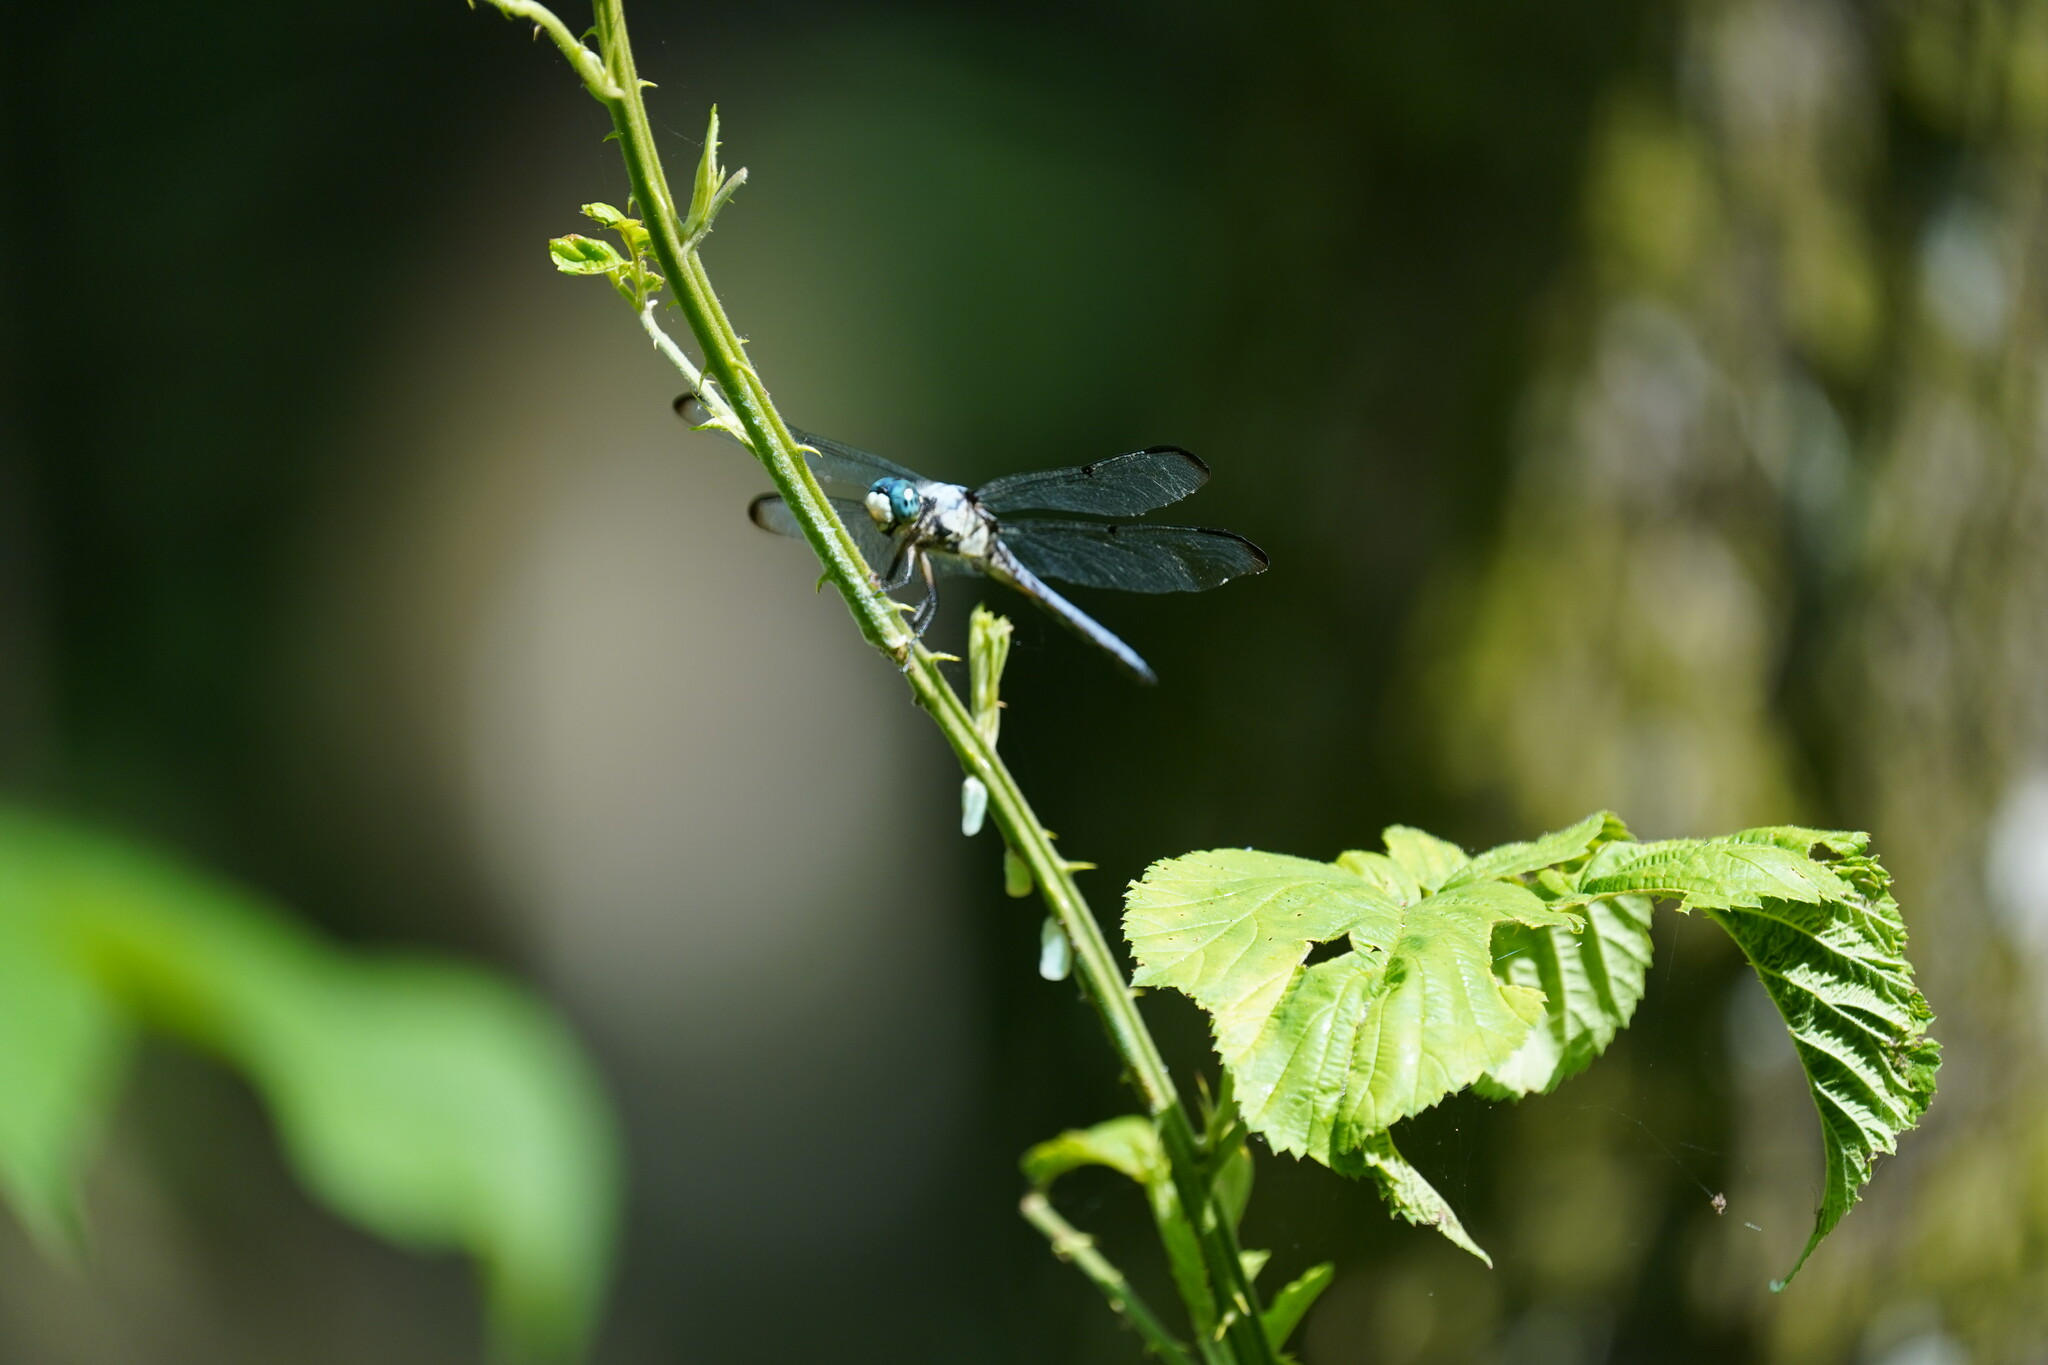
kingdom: Animalia
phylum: Arthropoda
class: Insecta
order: Odonata
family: Libellulidae
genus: Libellula
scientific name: Libellula vibrans
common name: Great blue skimmer
